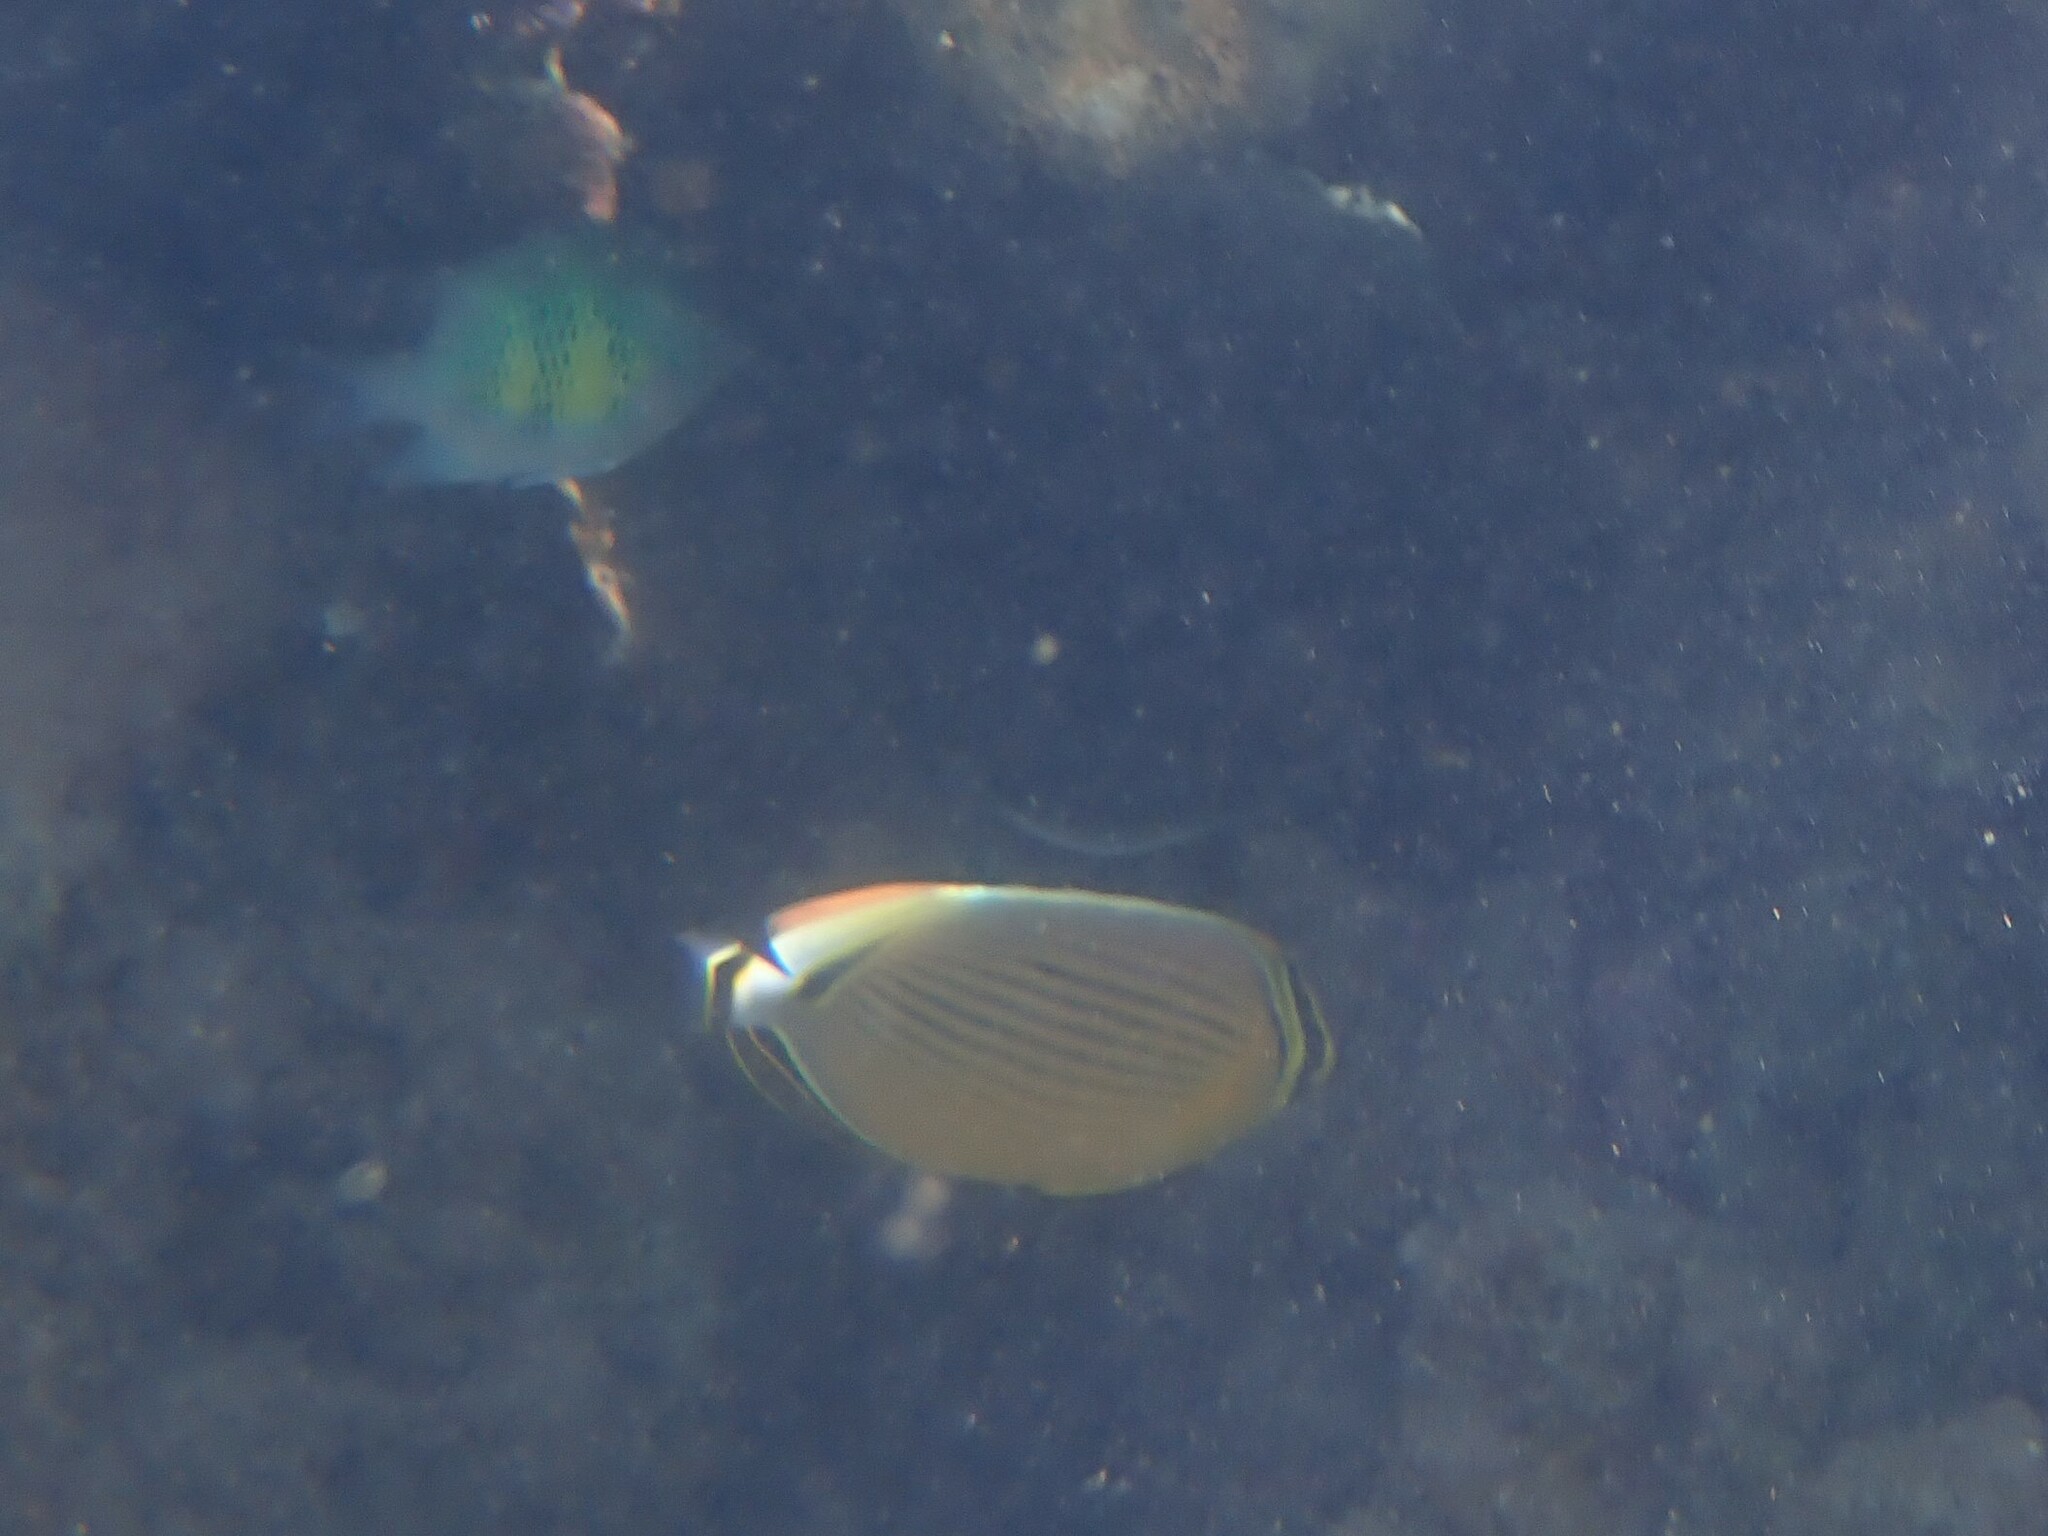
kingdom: Animalia
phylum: Chordata
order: Perciformes
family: Chaetodontidae
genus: Chaetodon
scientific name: Chaetodon lunulatus
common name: Redfin butterflyfish
